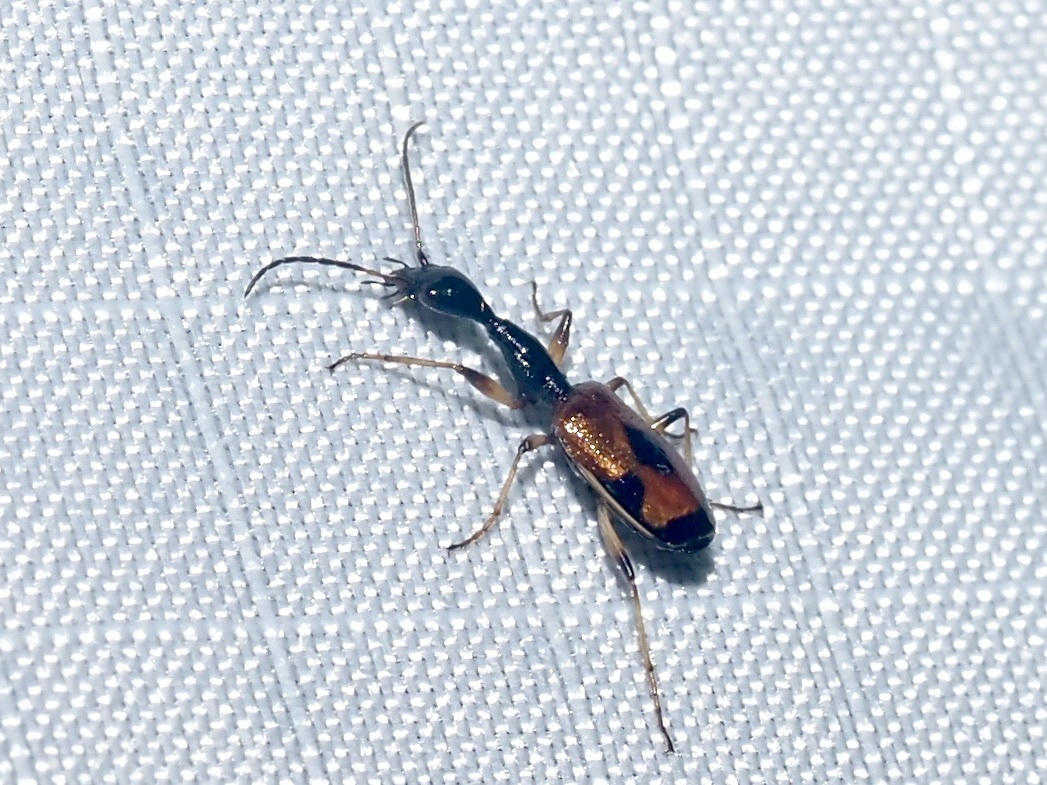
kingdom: Animalia
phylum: Arthropoda
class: Insecta
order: Coleoptera
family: Carabidae
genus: Colliuris
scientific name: Colliuris pensylvanica
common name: Long-necked ground beetle
